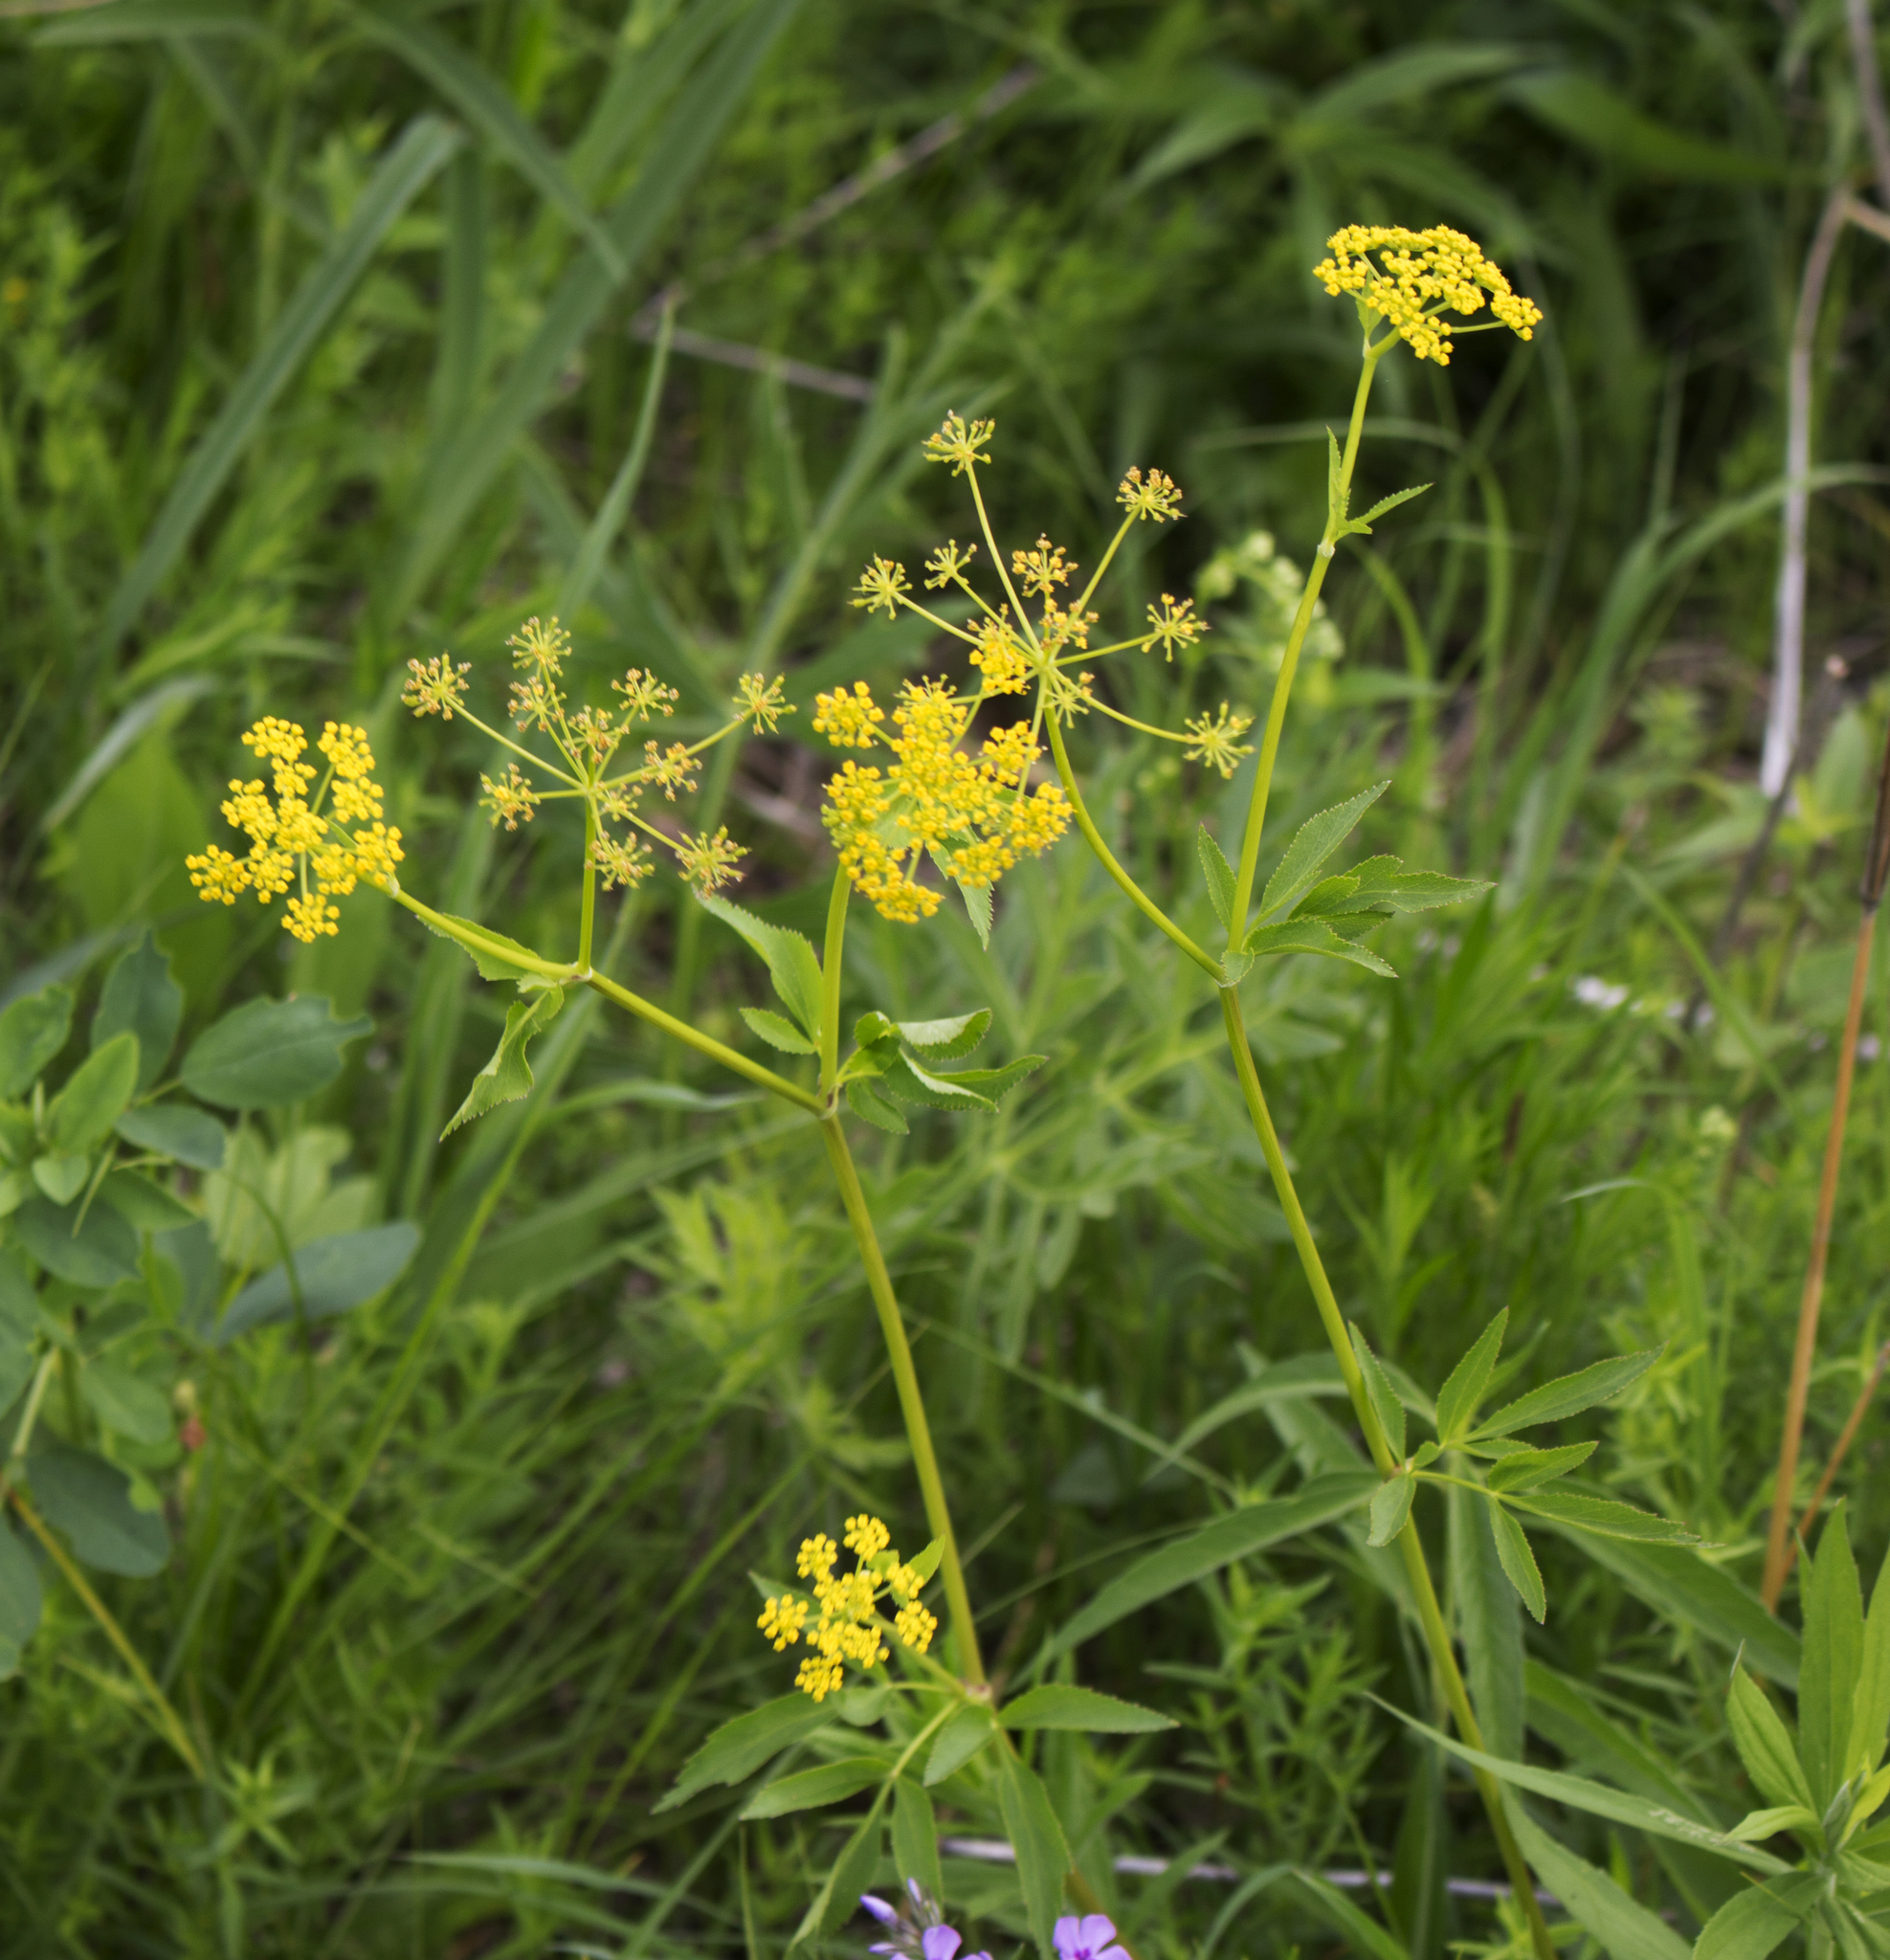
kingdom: Plantae
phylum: Tracheophyta
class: Magnoliopsida
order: Apiales
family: Apiaceae
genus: Zizia
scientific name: Zizia aurea
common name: Golden alexanders
